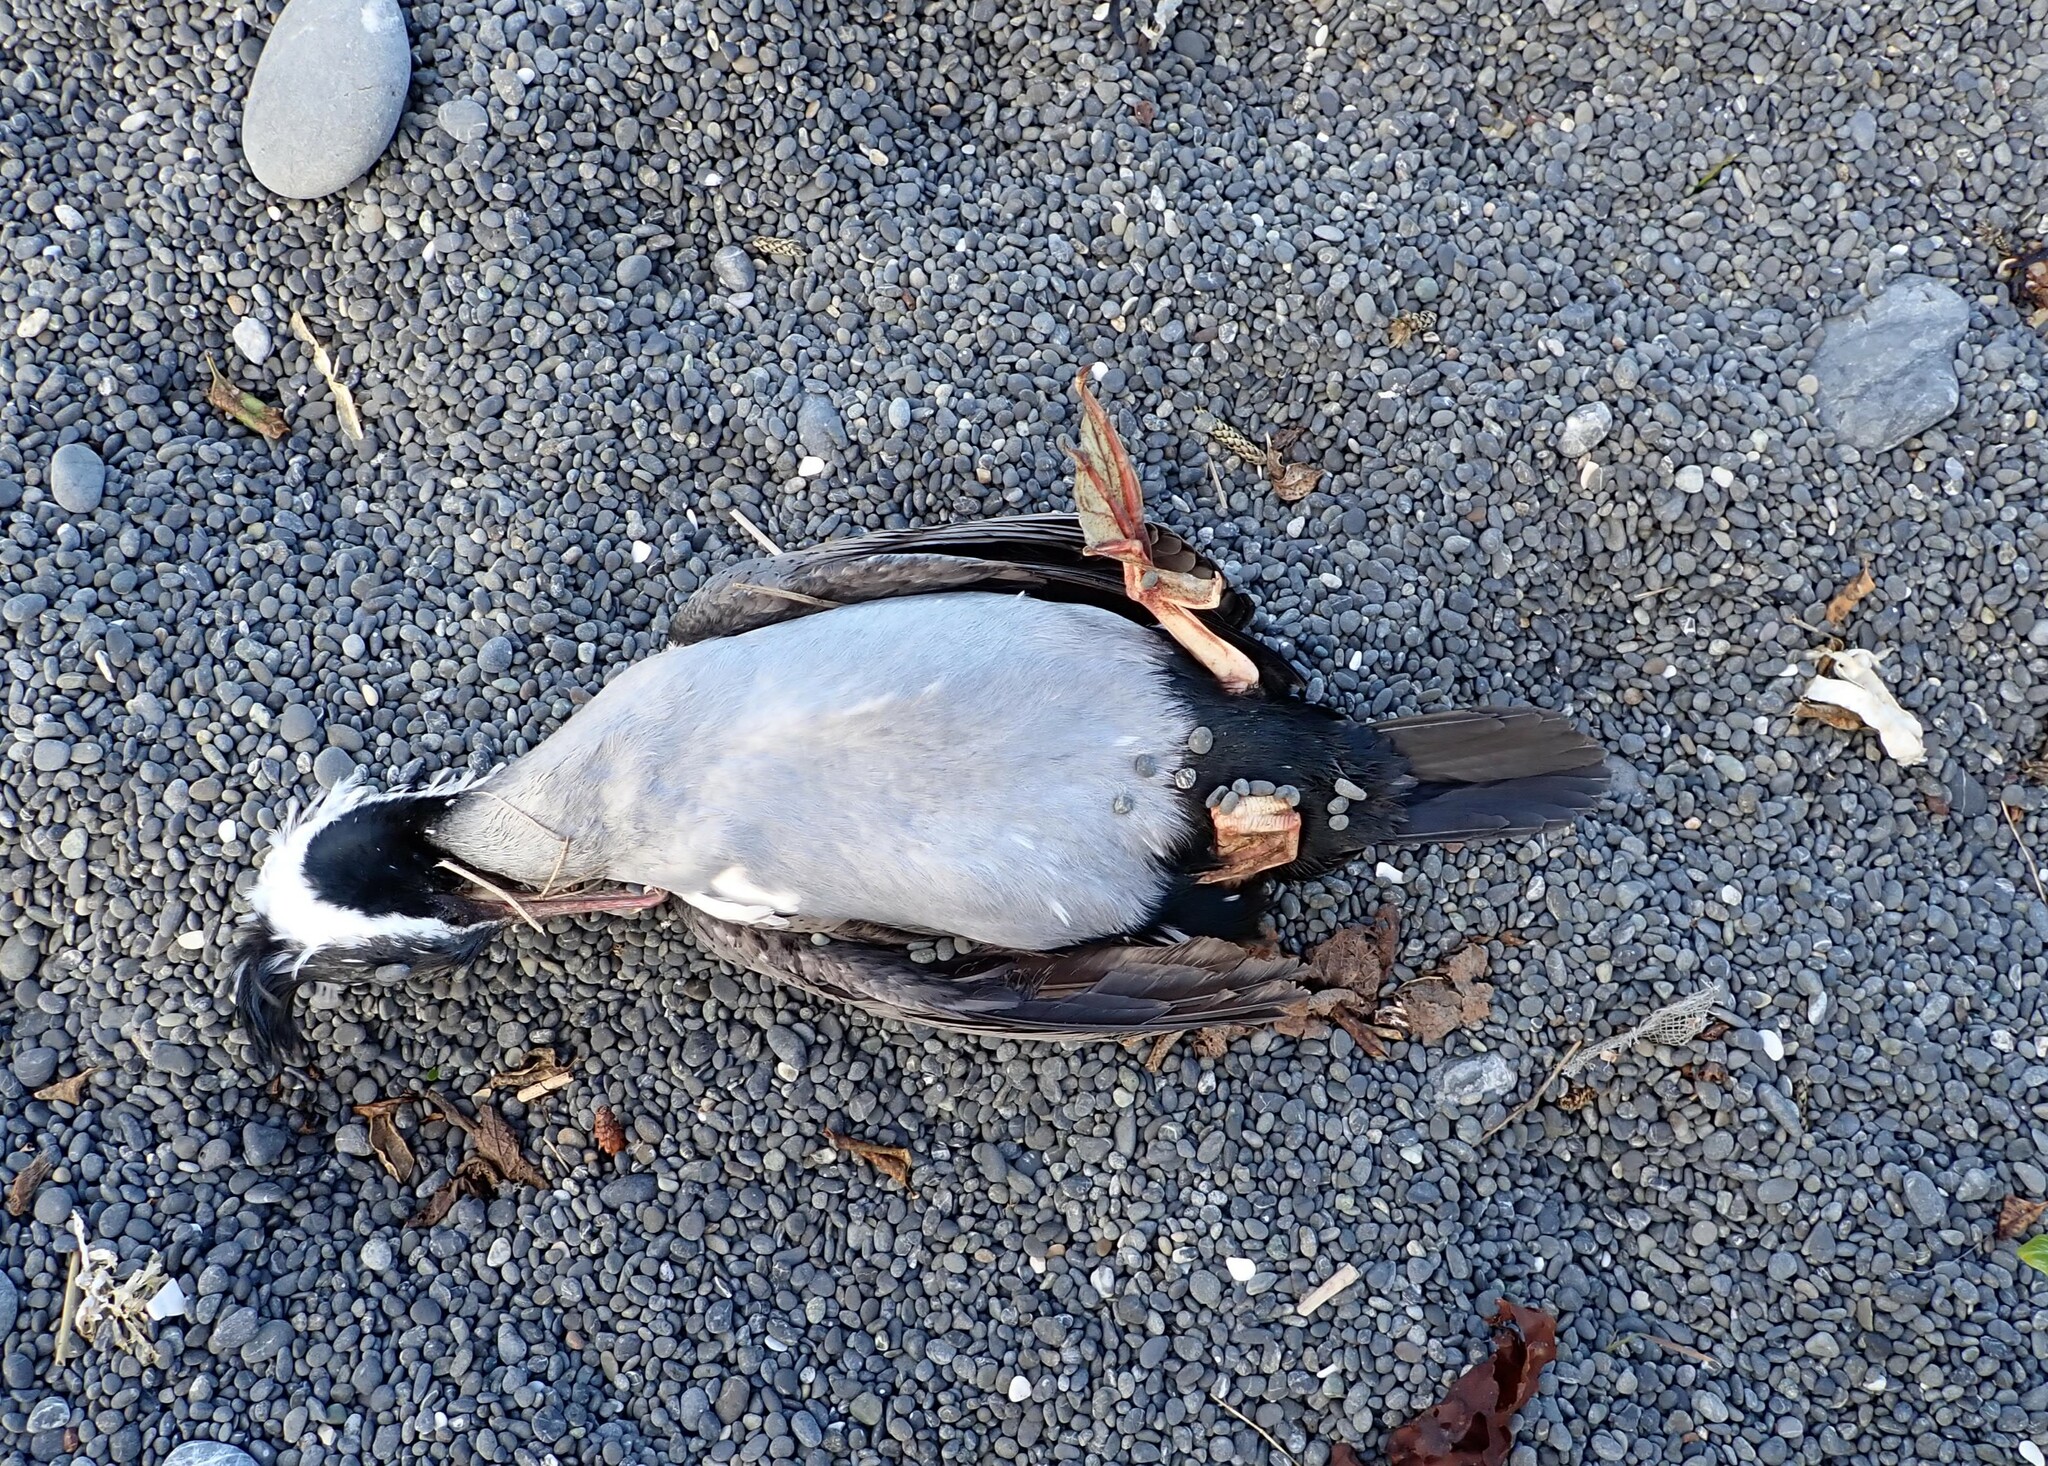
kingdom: Animalia
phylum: Chordata
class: Aves
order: Suliformes
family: Phalacrocoracidae
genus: Phalacrocorax
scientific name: Phalacrocorax punctatus
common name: Spotted shag
